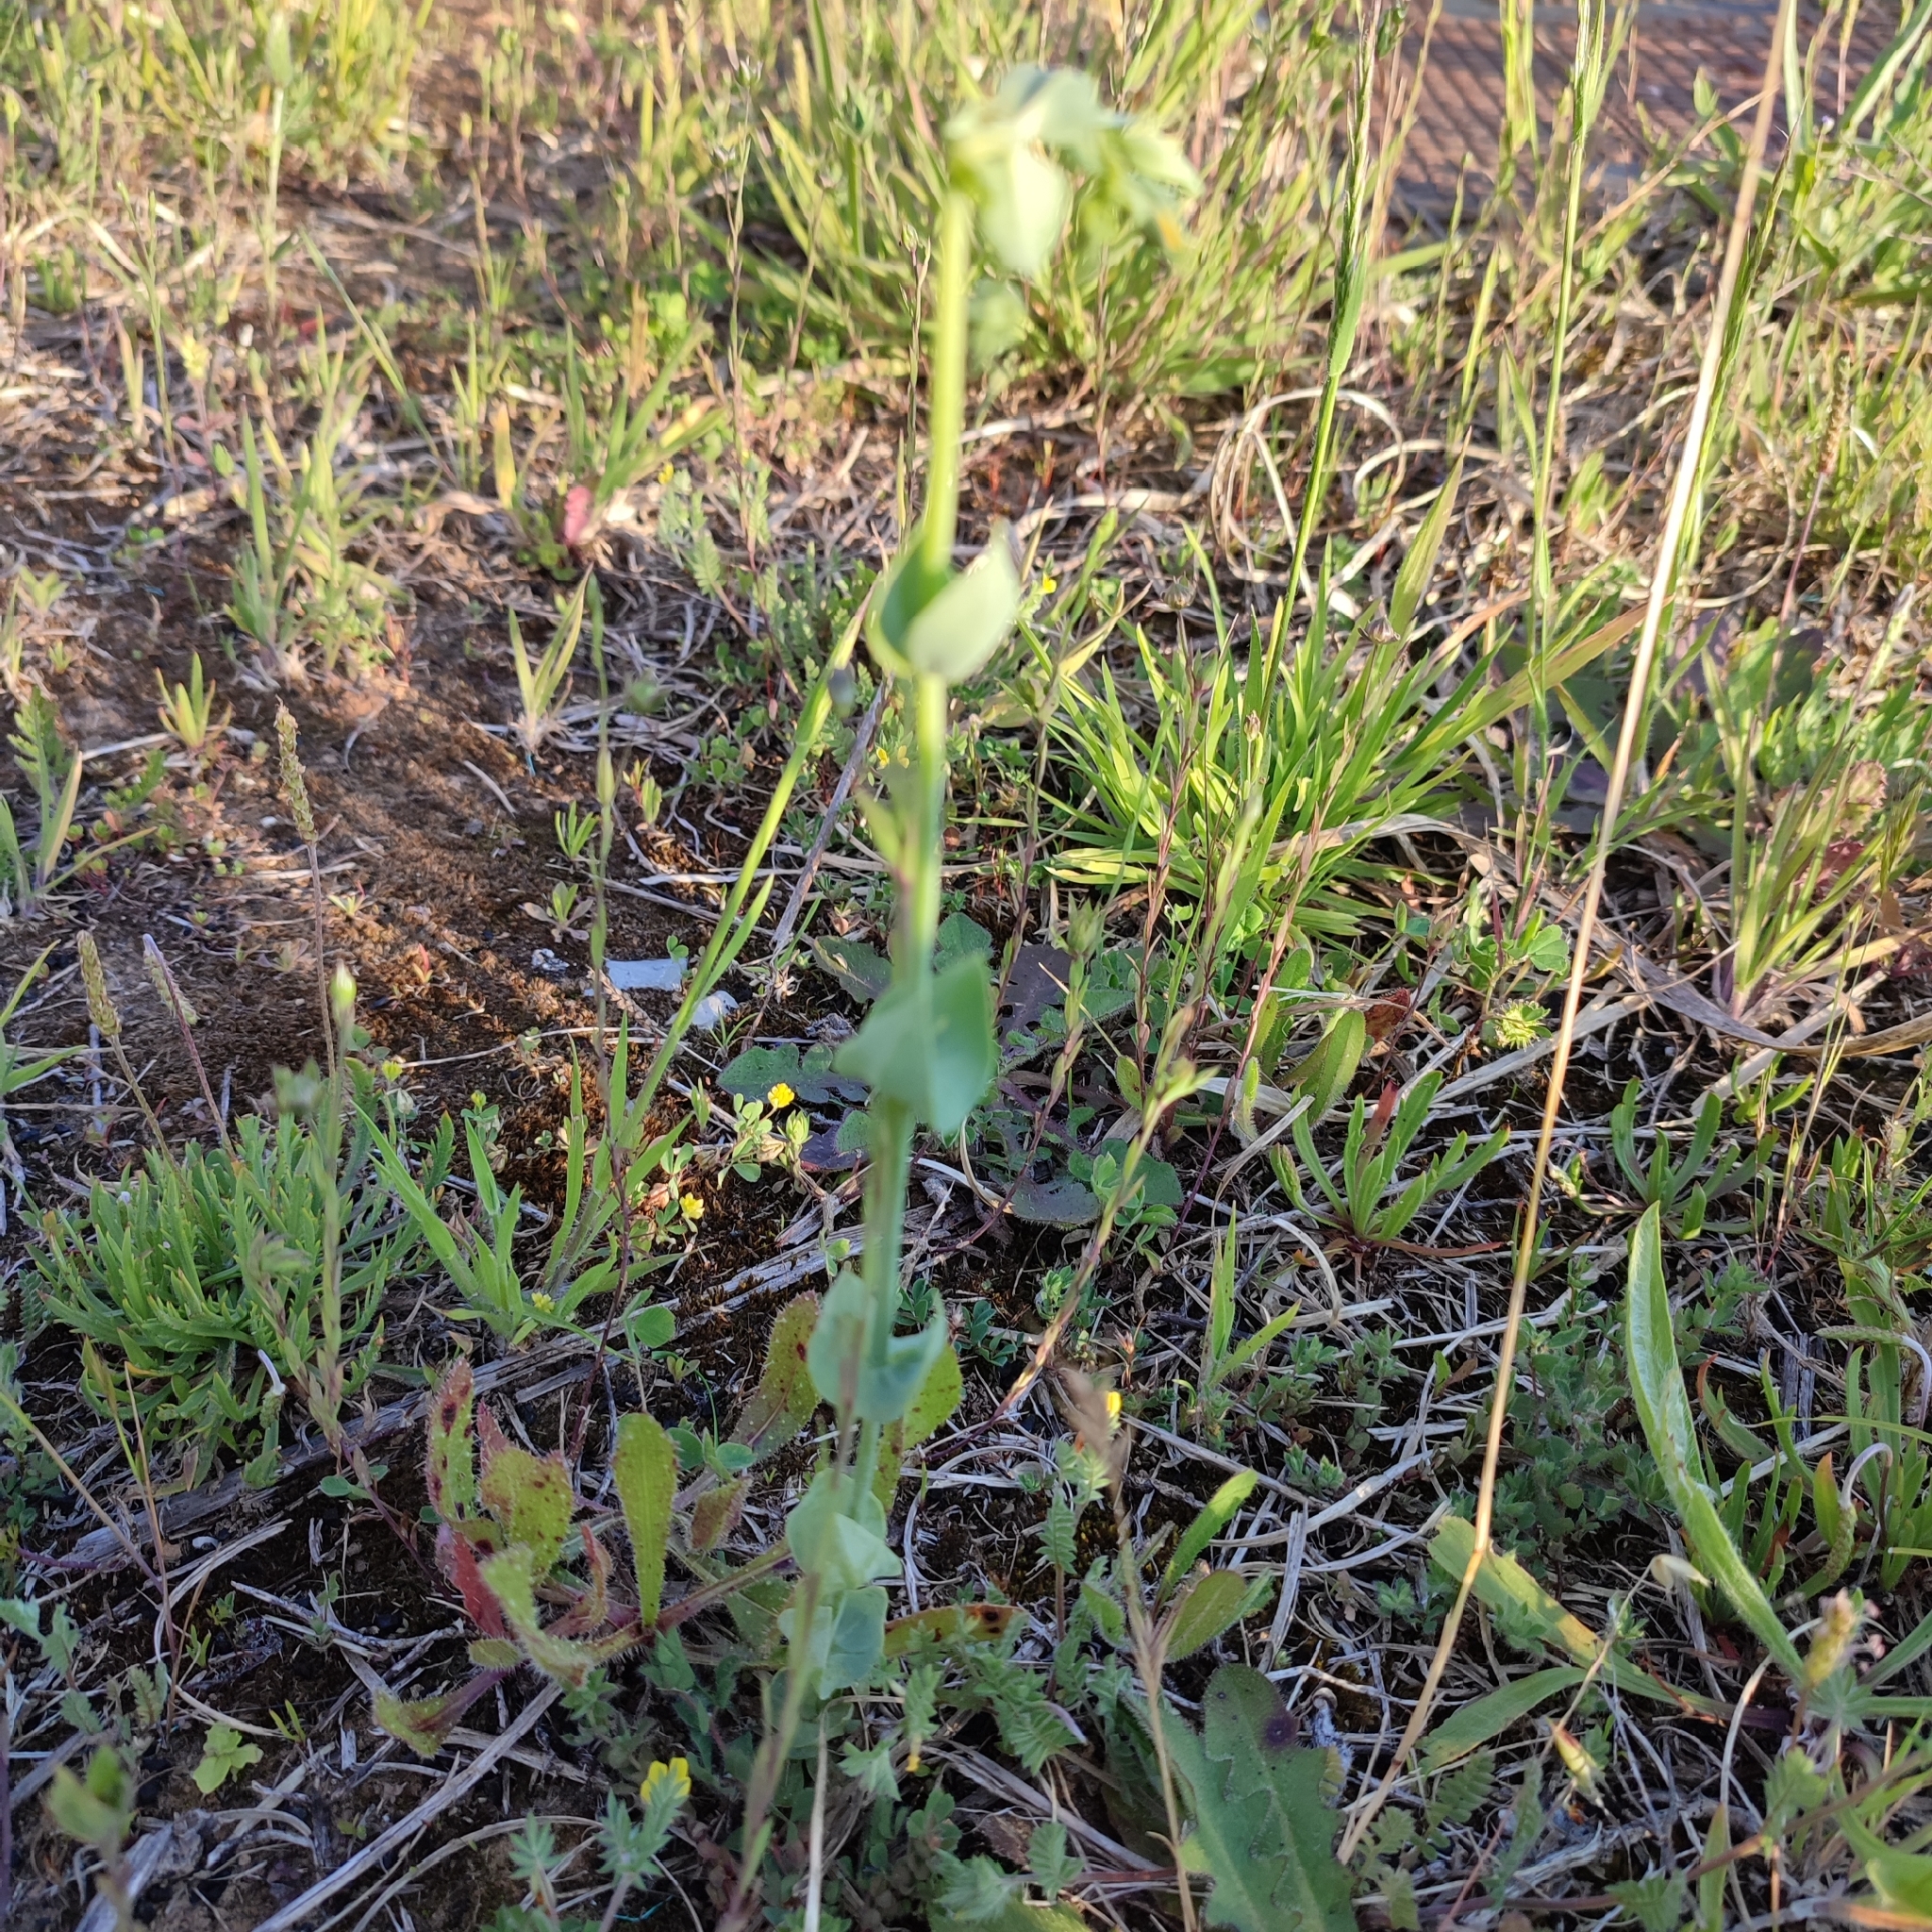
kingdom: Plantae
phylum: Tracheophyta
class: Magnoliopsida
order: Gentianales
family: Gentianaceae
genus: Blackstonia
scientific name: Blackstonia perfoliata
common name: Yellow-wort
